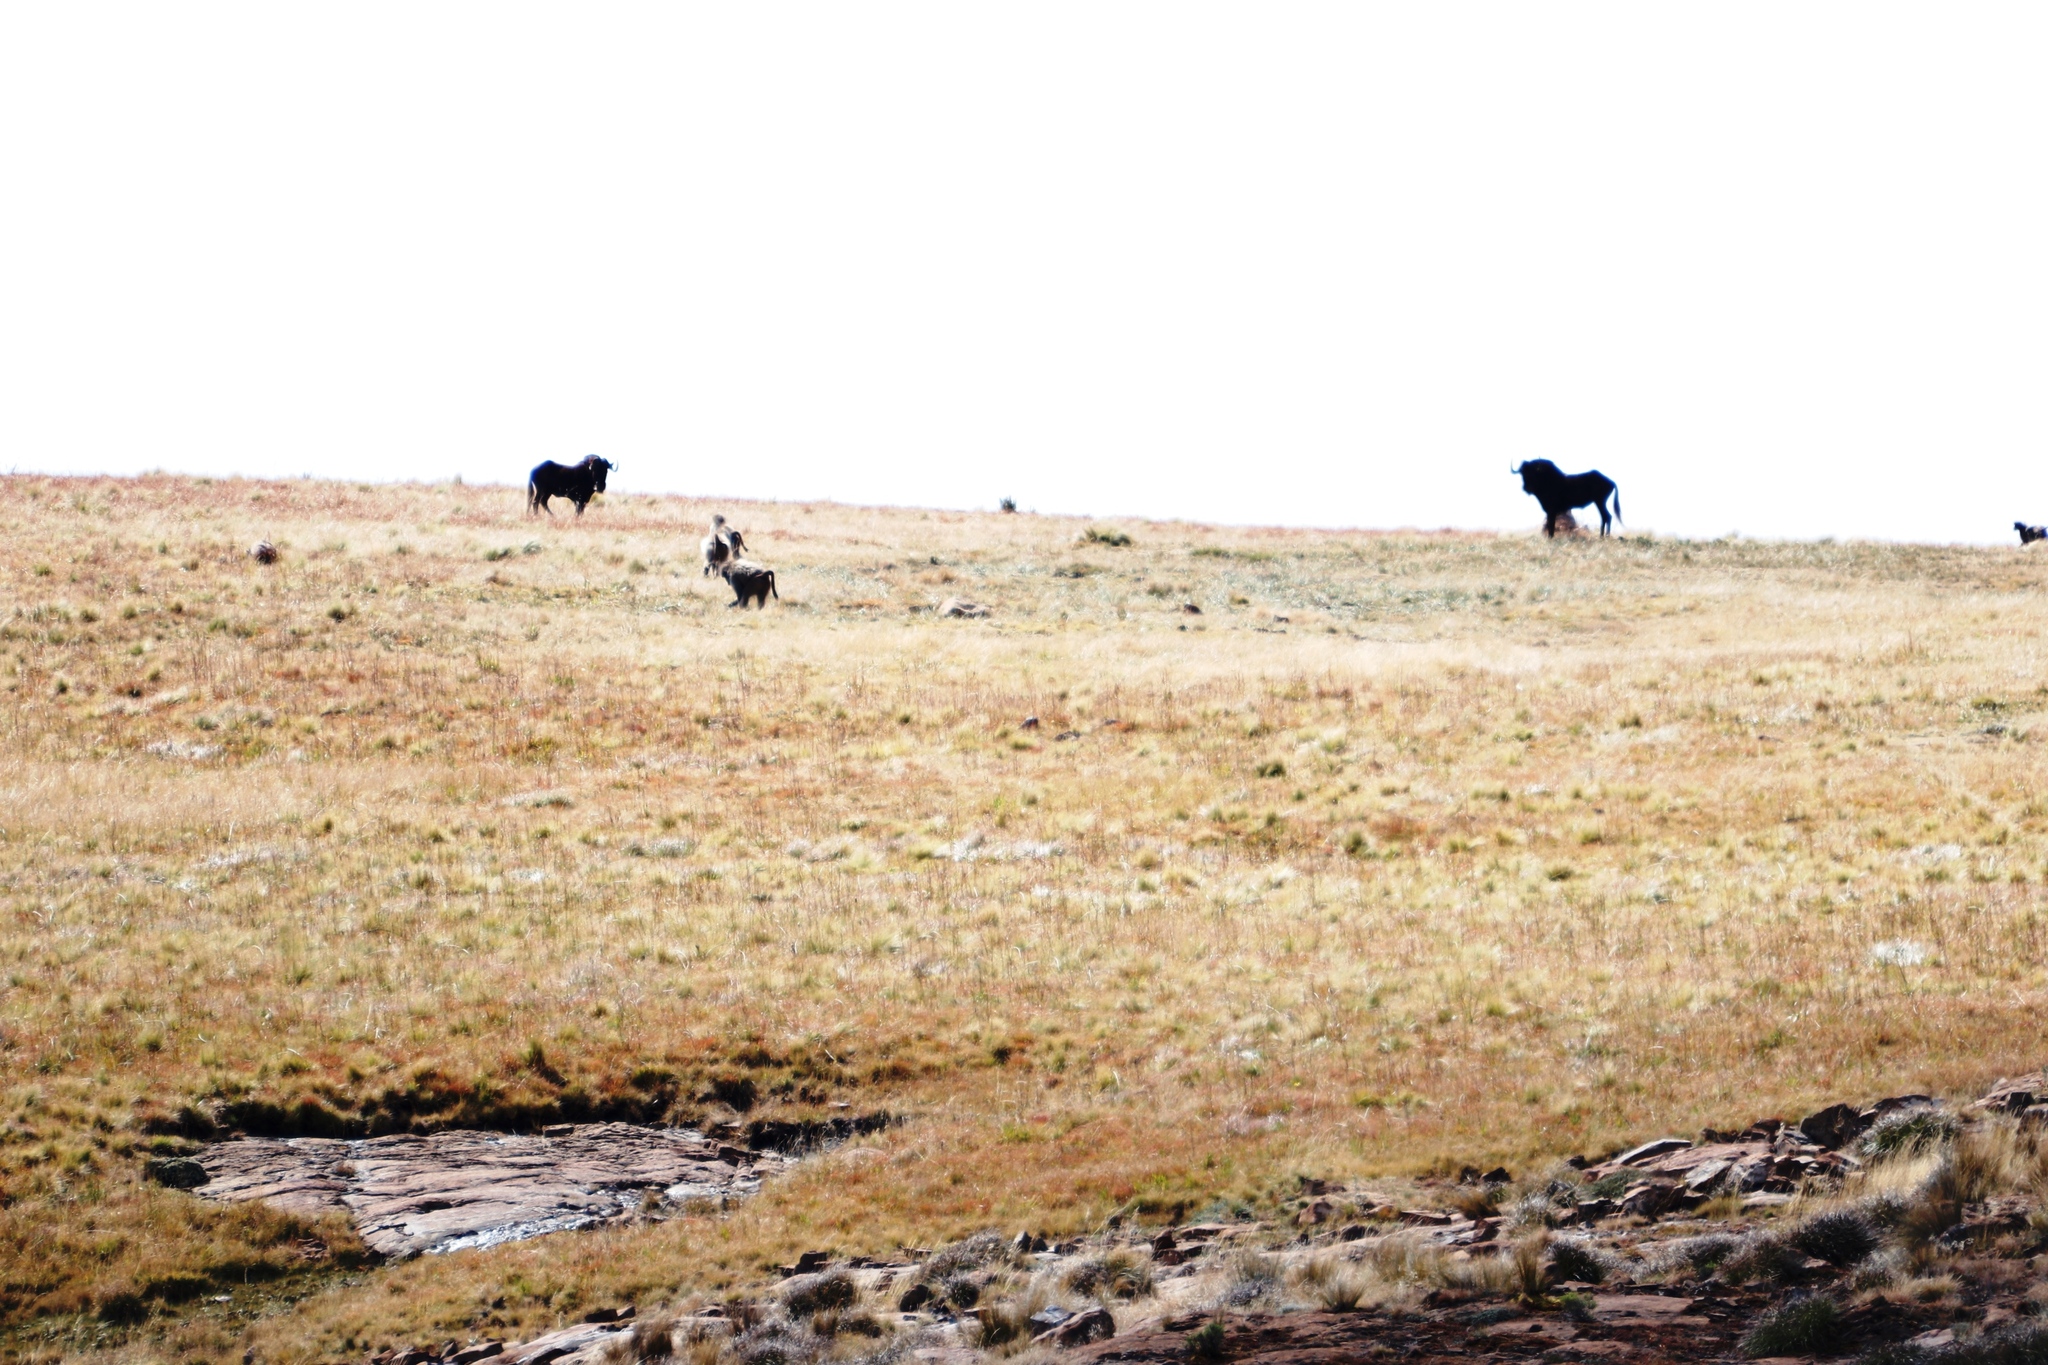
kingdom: Animalia
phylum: Chordata
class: Mammalia
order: Artiodactyla
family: Bovidae
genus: Connochaetes
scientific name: Connochaetes gnou
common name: Black wildebeest
